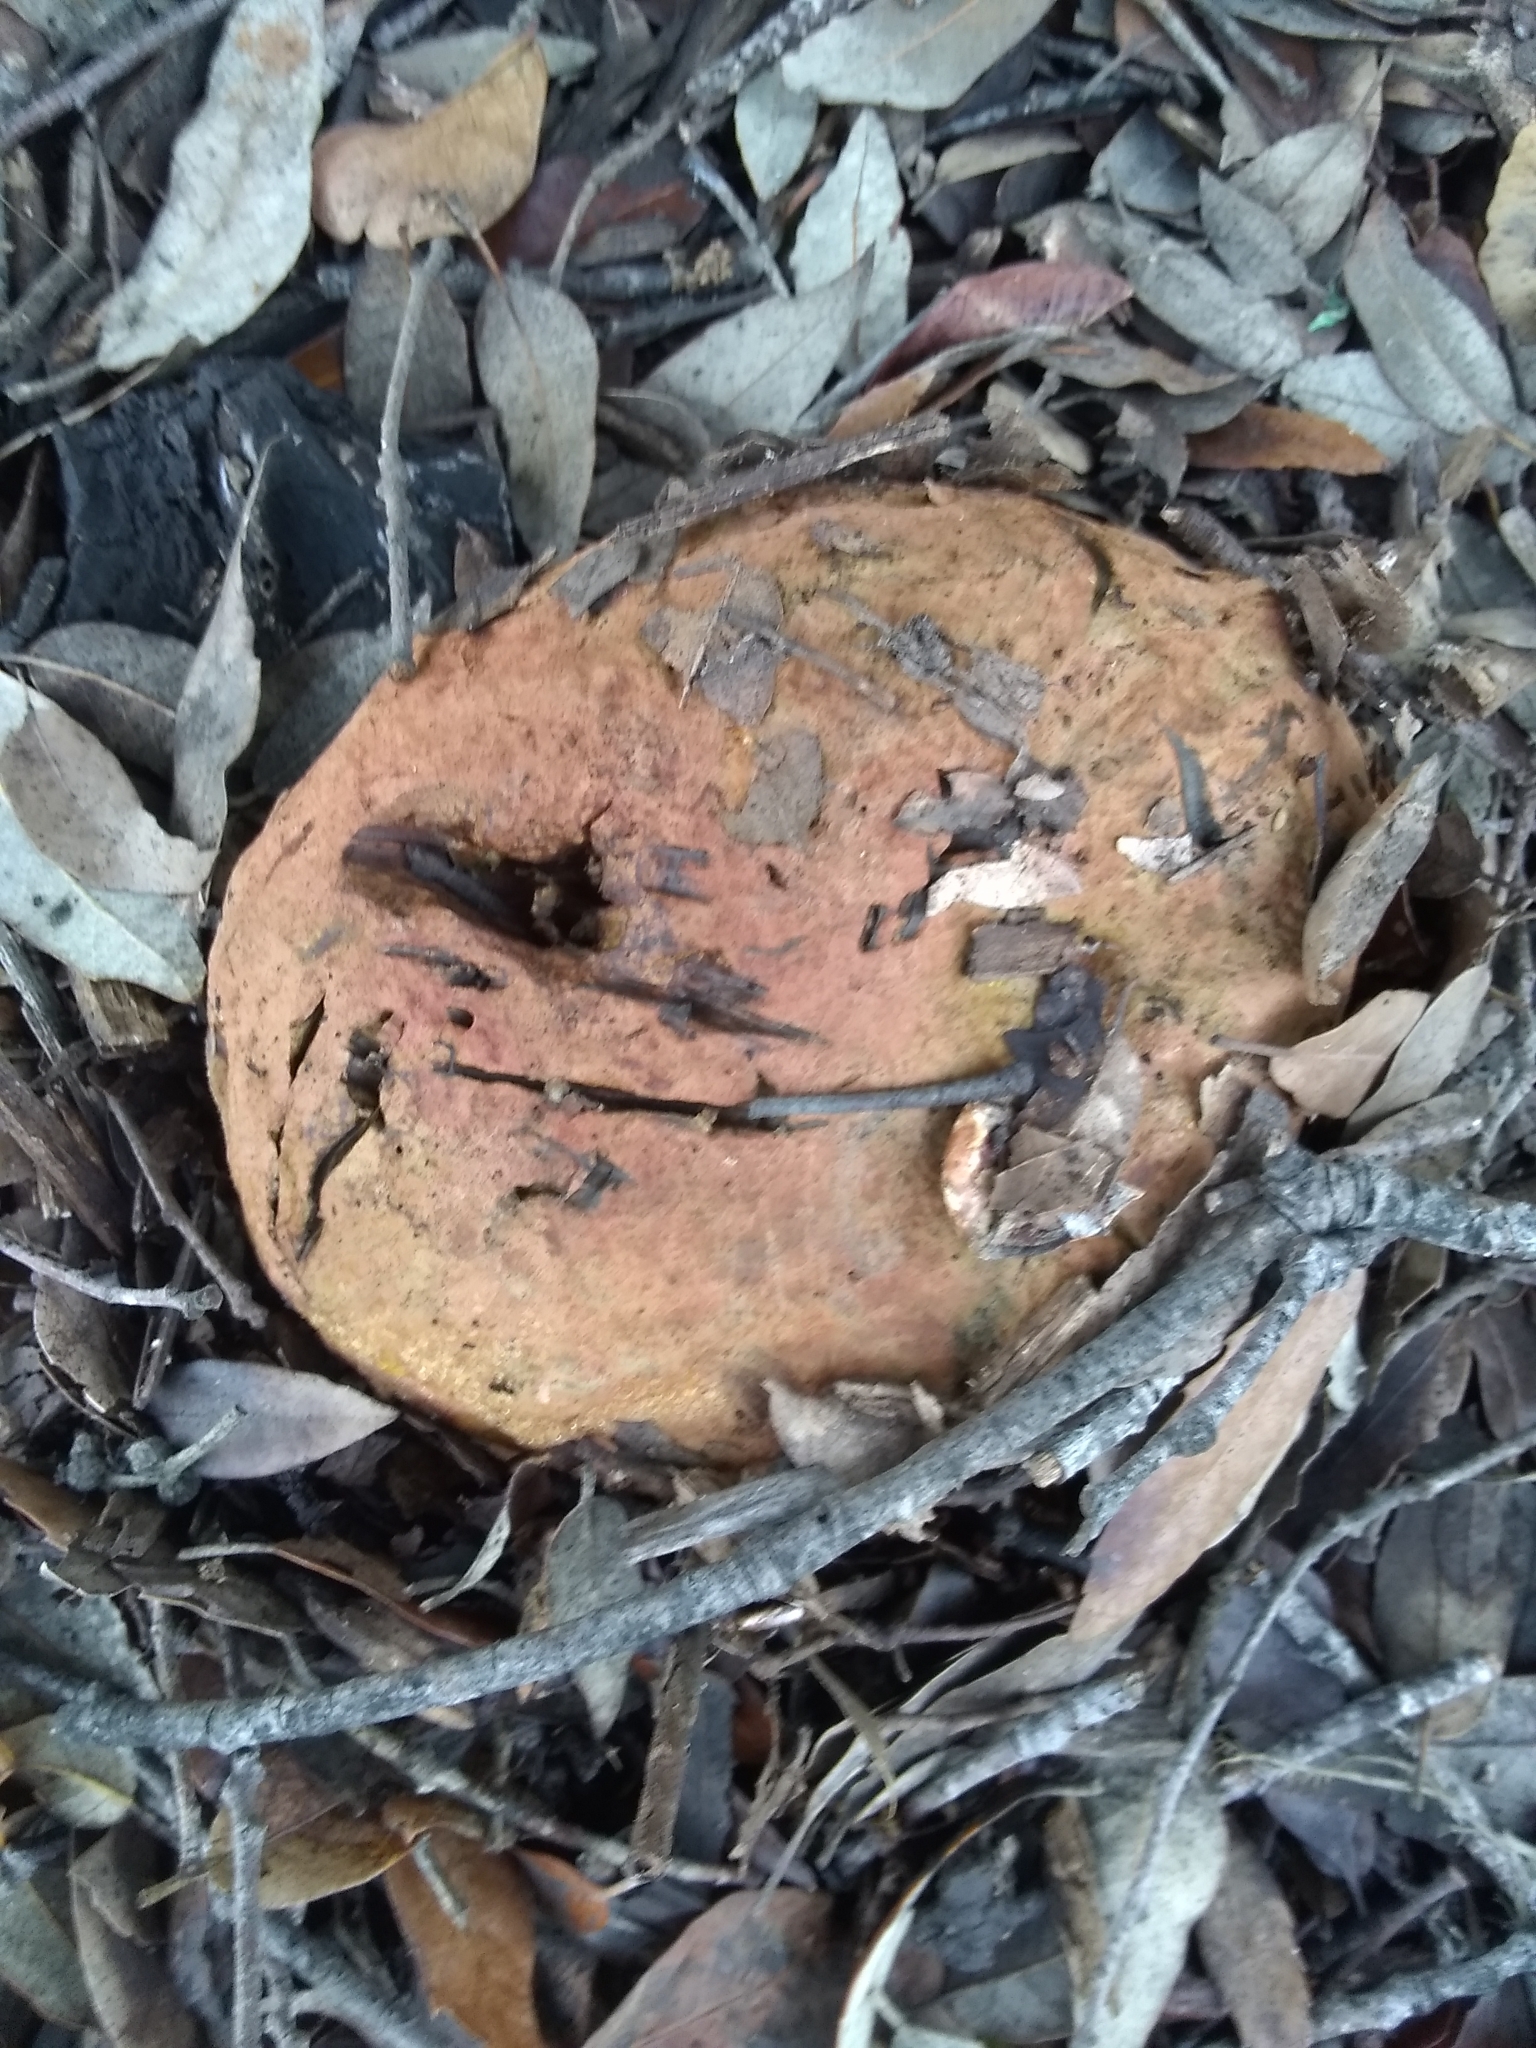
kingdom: Fungi
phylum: Basidiomycota
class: Agaricomycetes
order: Boletales
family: Boletaceae
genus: Suillellus
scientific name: Suillellus amygdalinus
